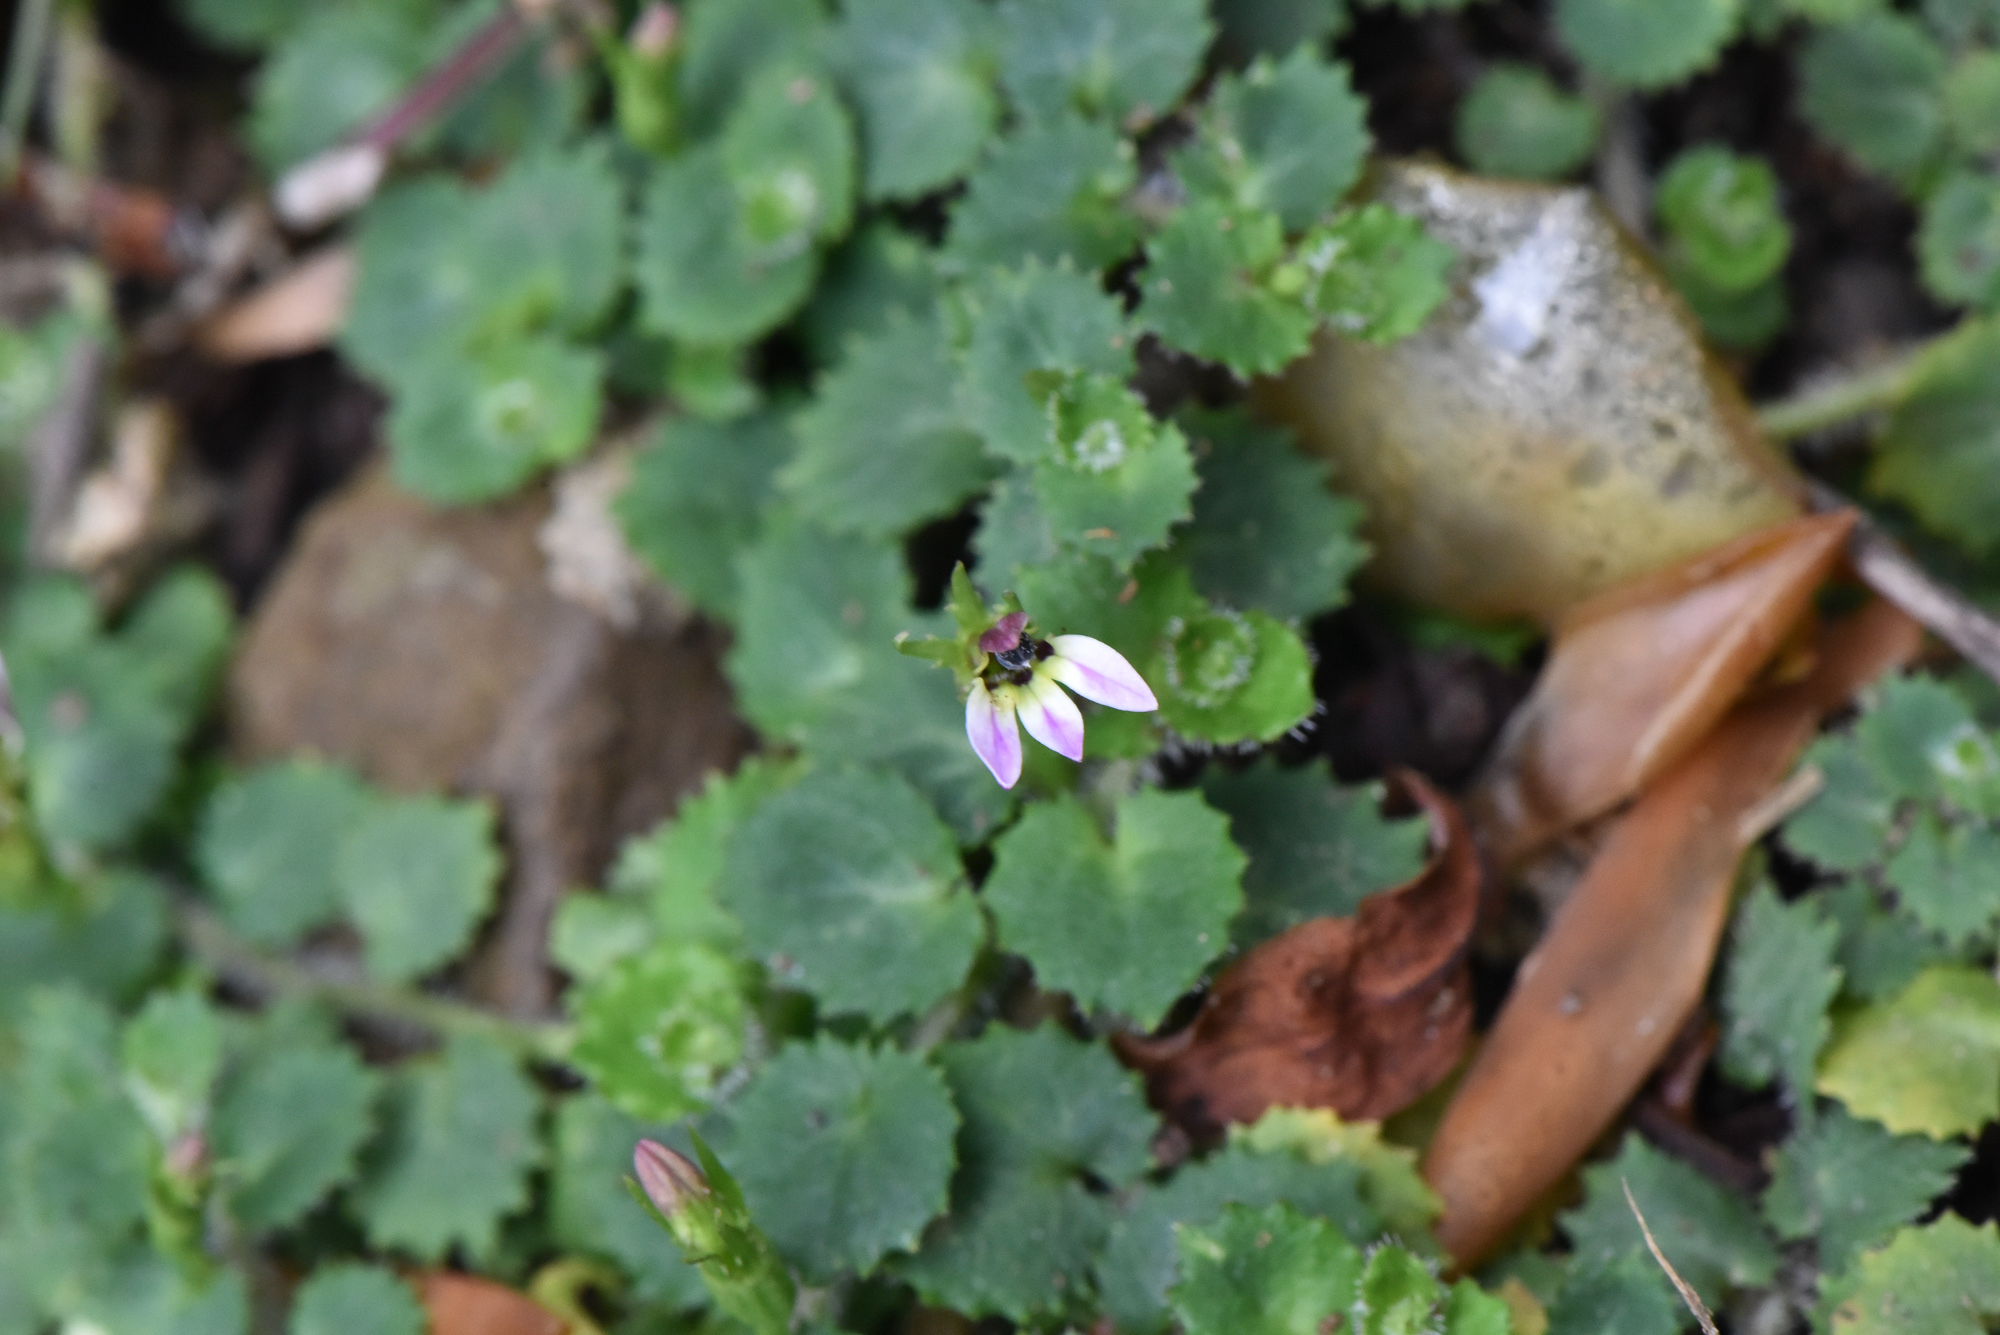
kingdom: Plantae
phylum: Tracheophyta
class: Magnoliopsida
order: Asterales
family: Campanulaceae
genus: Lobelia
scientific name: Lobelia nummularia
